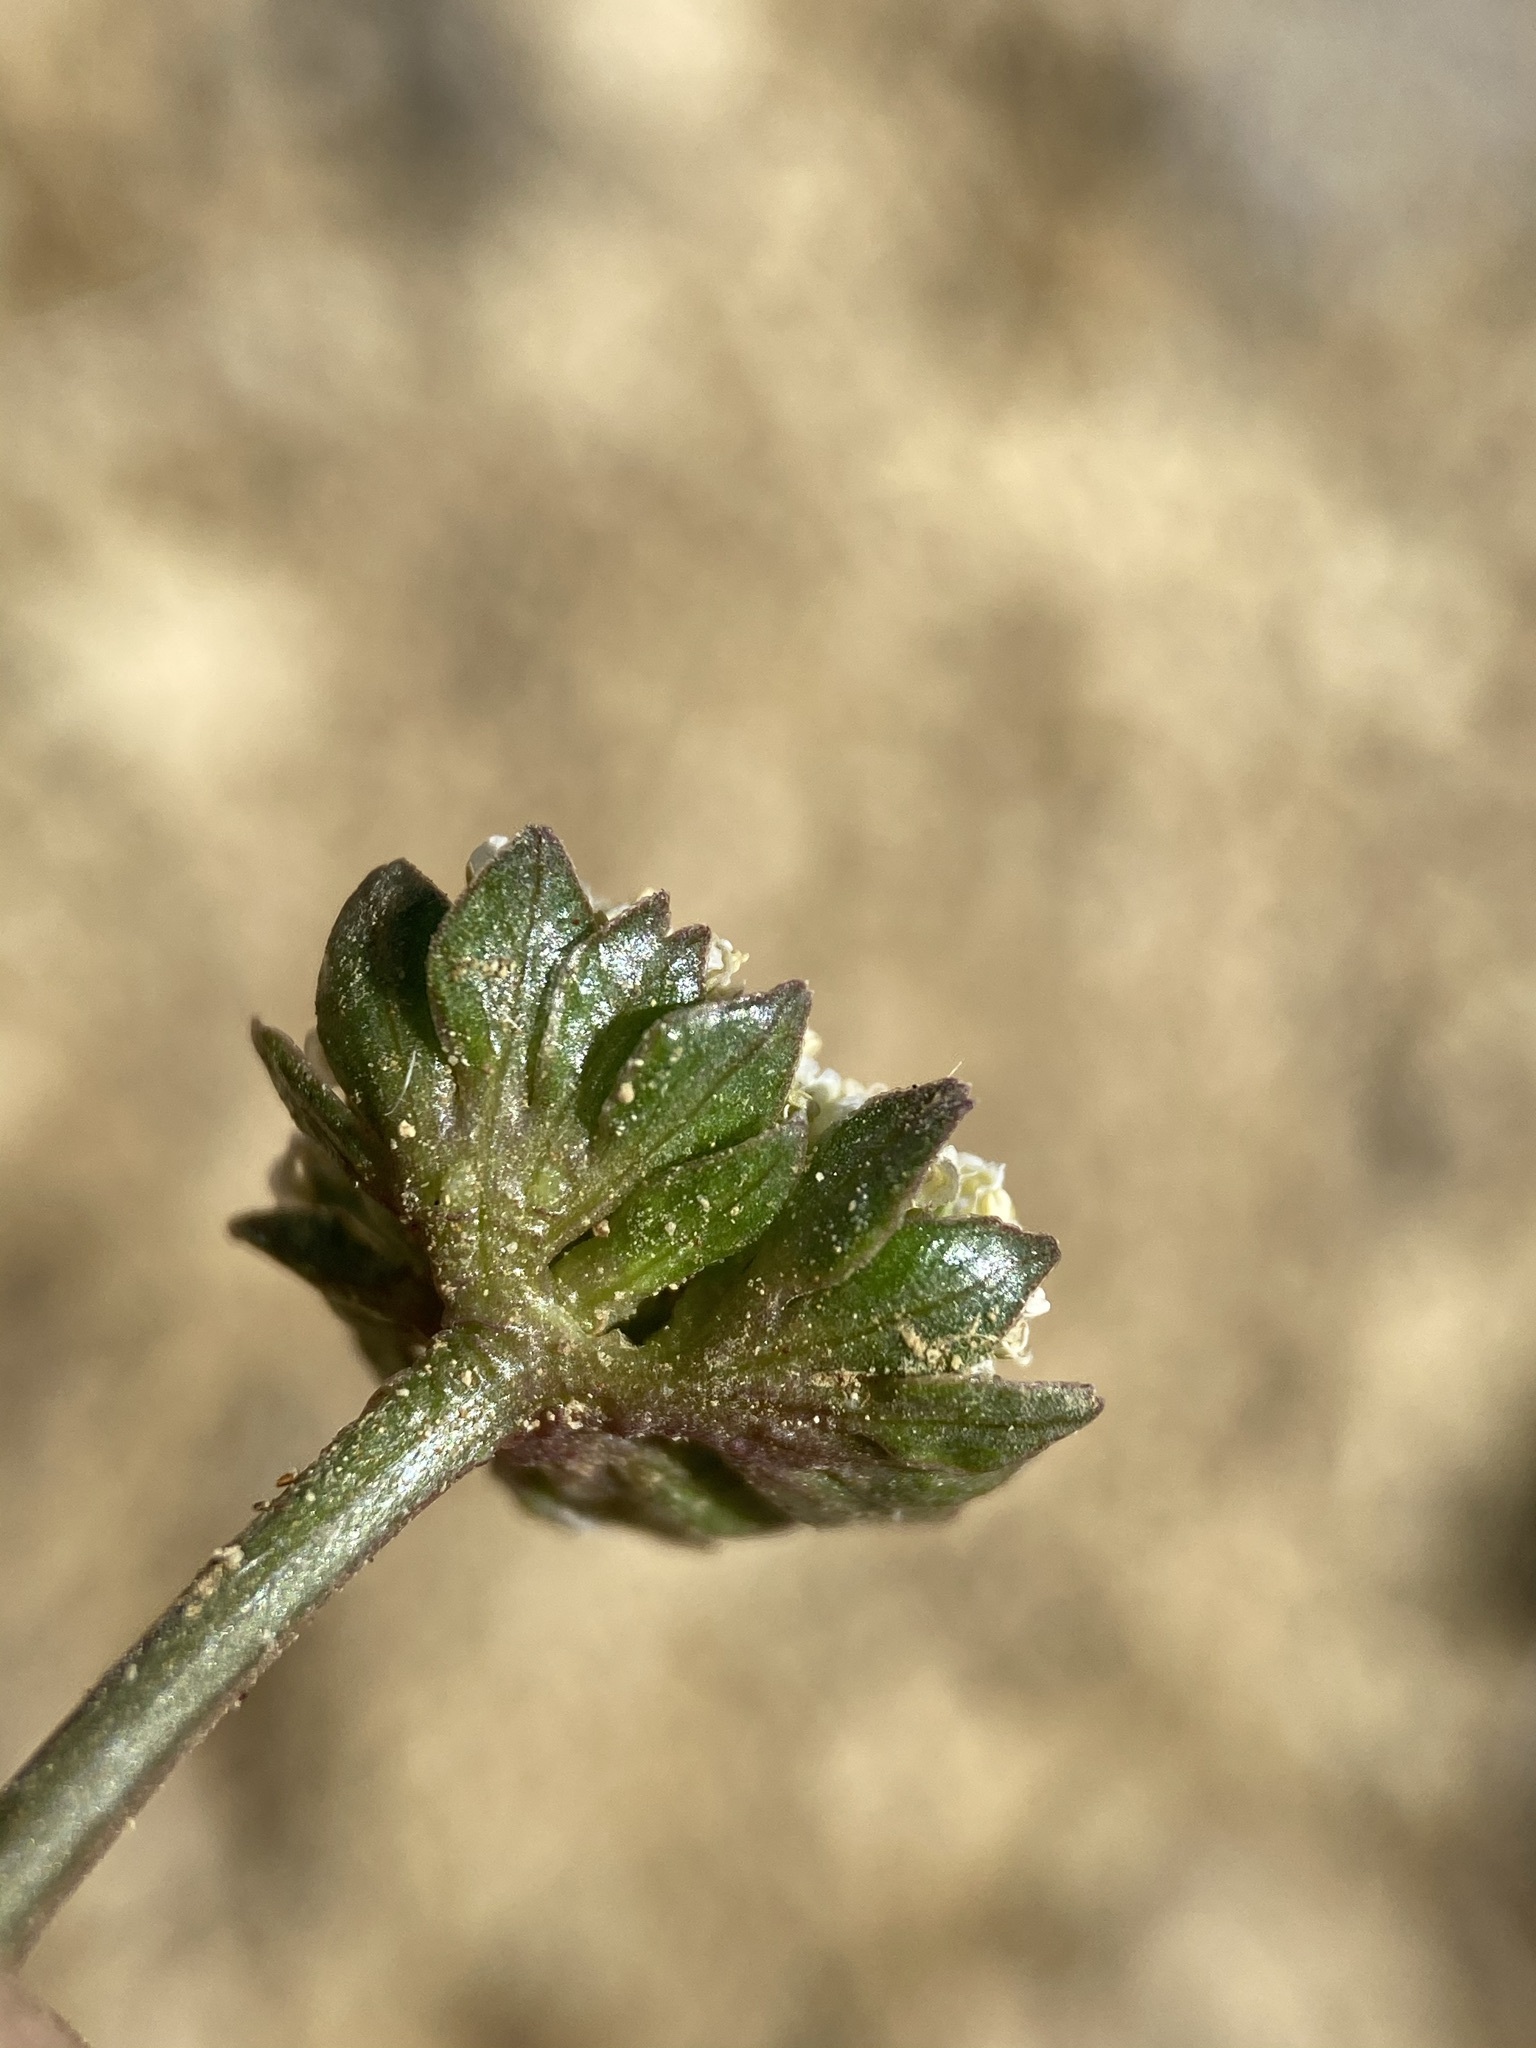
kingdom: Plantae
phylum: Tracheophyta
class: Magnoliopsida
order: Apiales
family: Apiaceae
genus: Cymopterus
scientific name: Cymopterus glomeratus
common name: Plains spring parsley
